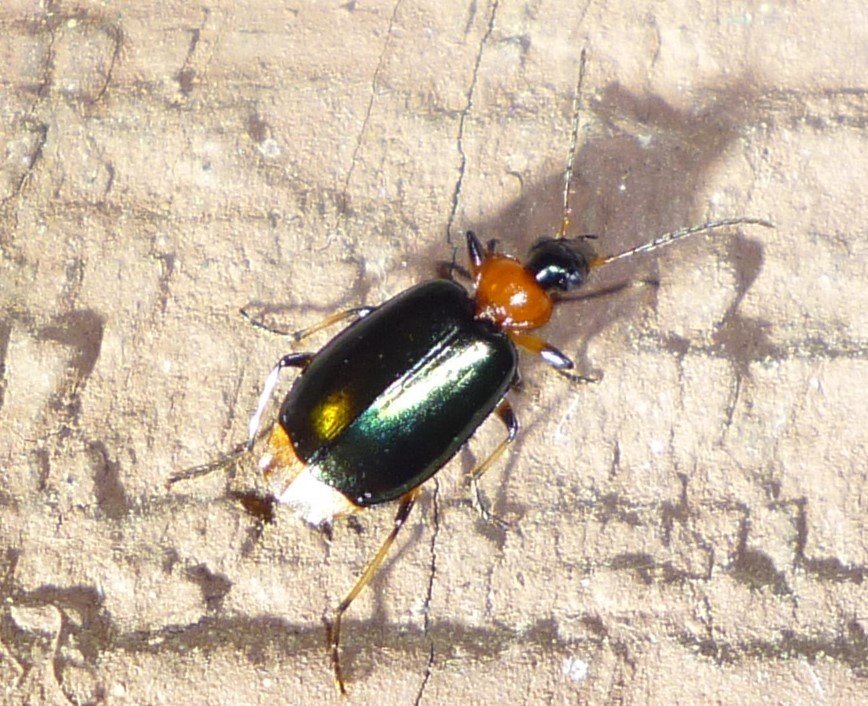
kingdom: Animalia
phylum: Arthropoda
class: Insecta
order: Coleoptera
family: Carabidae
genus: Lebia
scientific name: Lebia viridipennis
